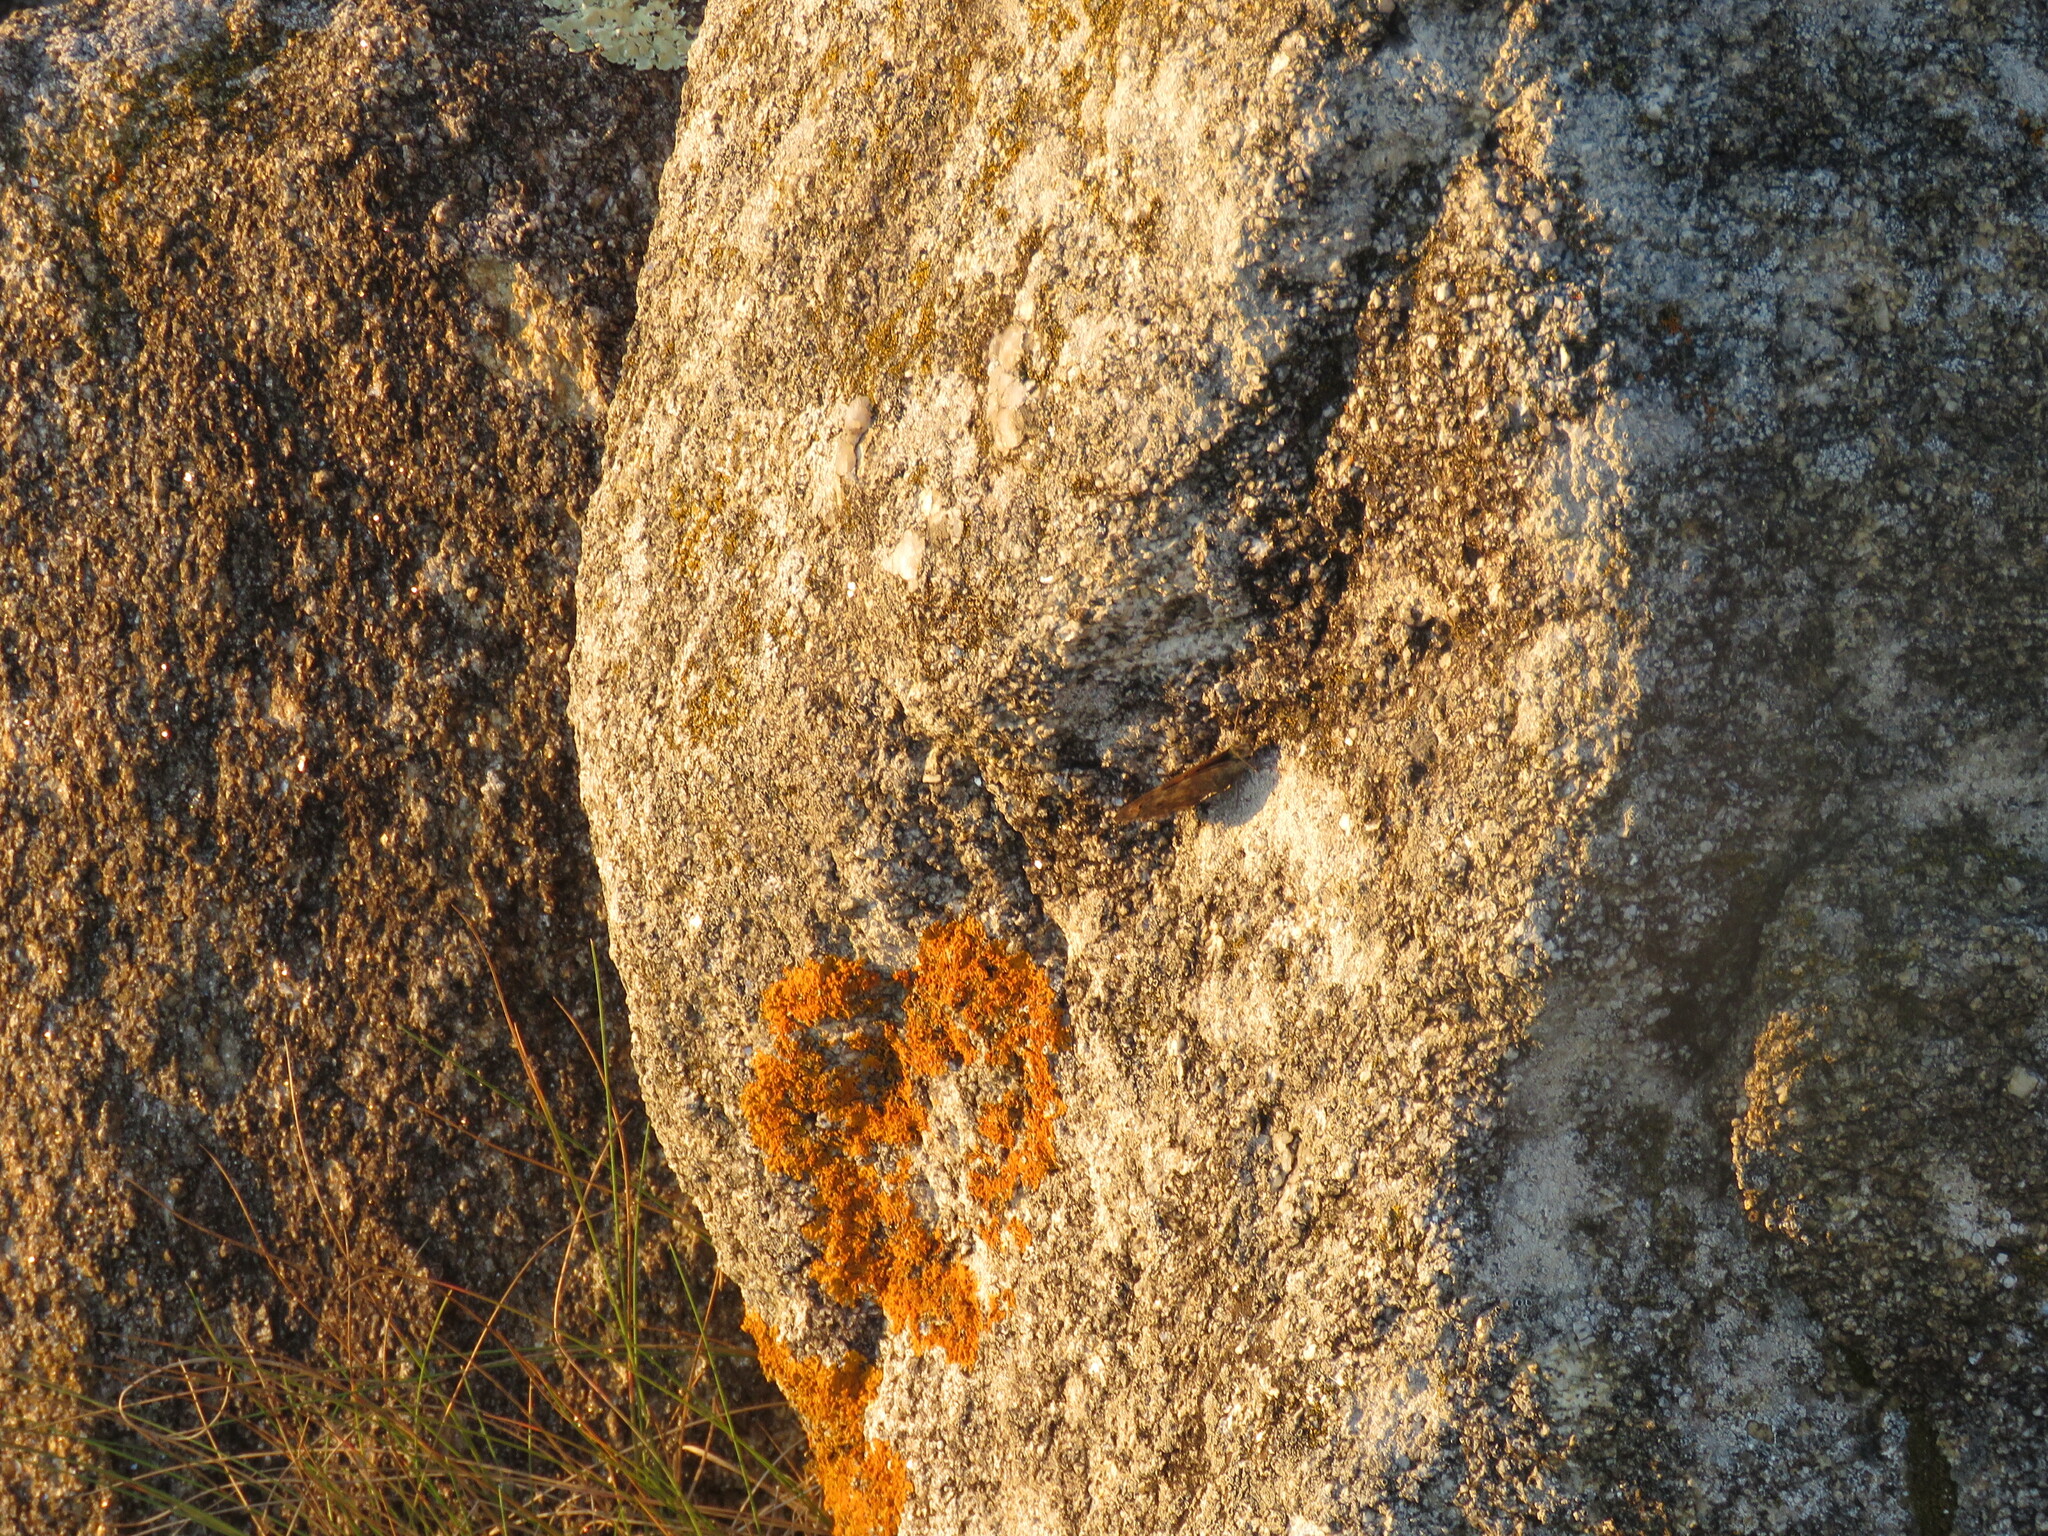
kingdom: Animalia
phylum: Arthropoda
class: Insecta
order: Lepidoptera
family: Nymphalidae
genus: Pararge
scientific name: Pararge Lasiommata megera
